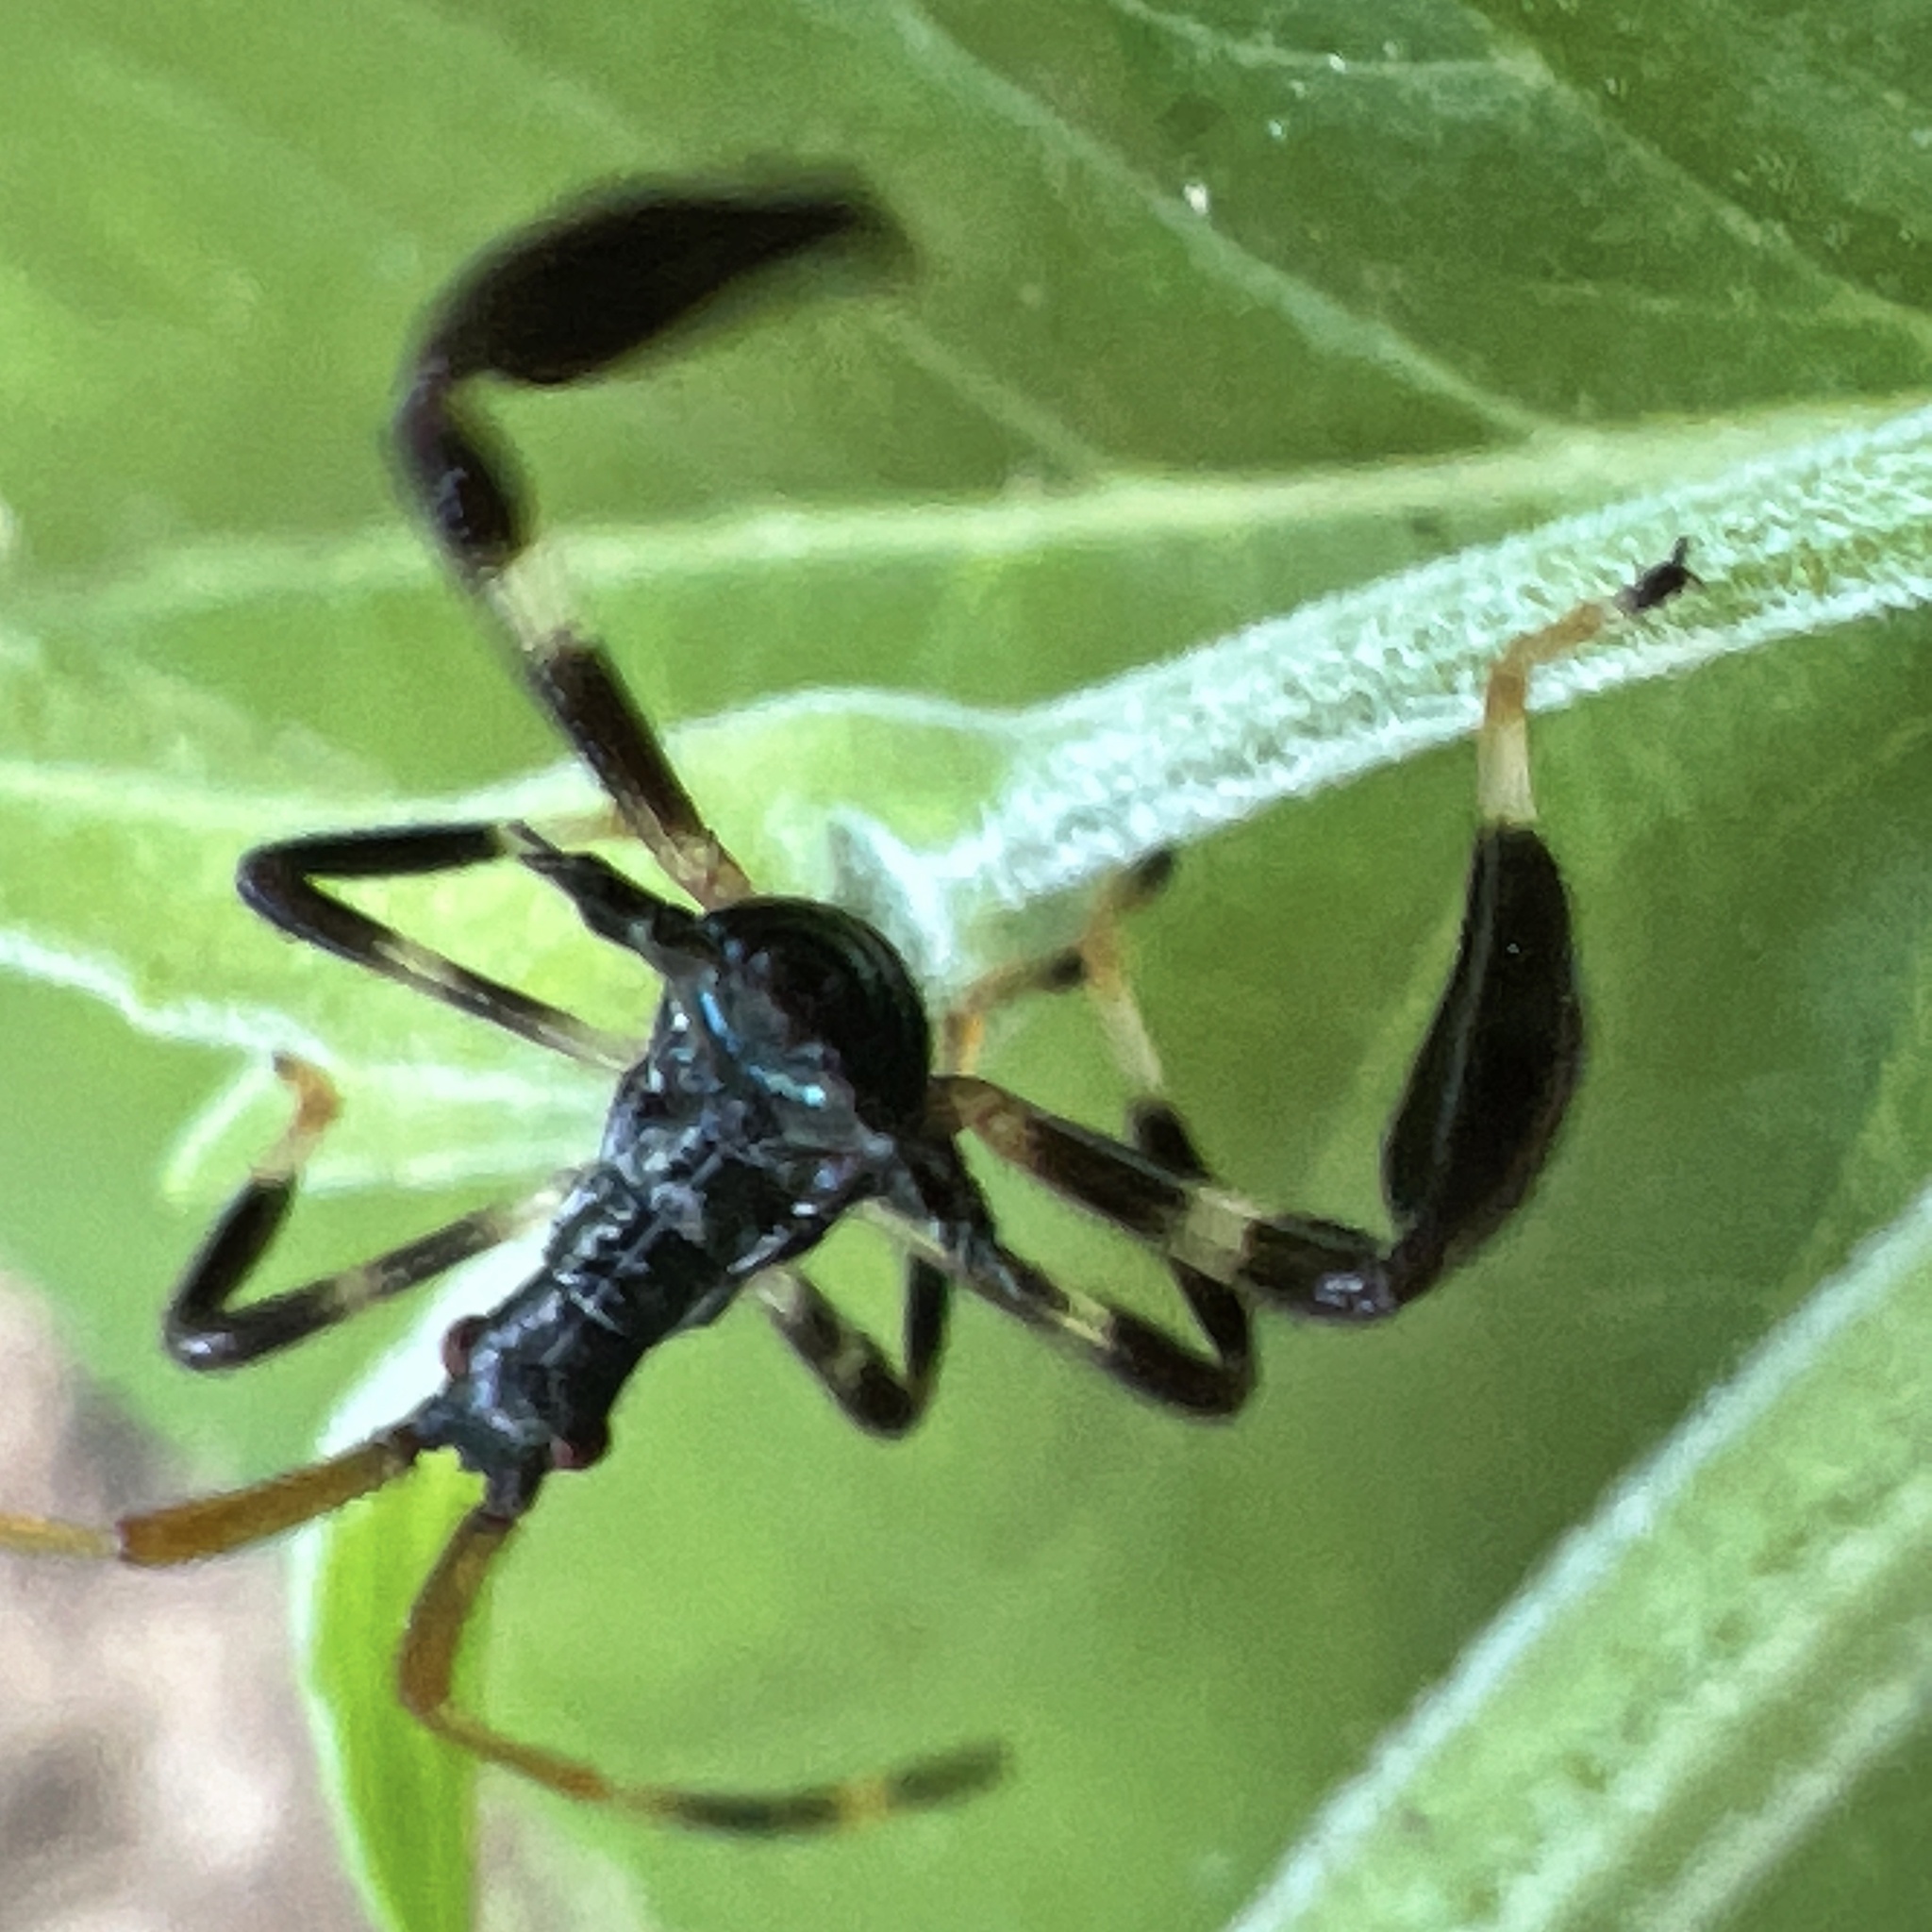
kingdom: Animalia
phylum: Arthropoda
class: Insecta
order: Hemiptera
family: Coreidae
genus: Acanthocephala
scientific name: Acanthocephala terminalis
